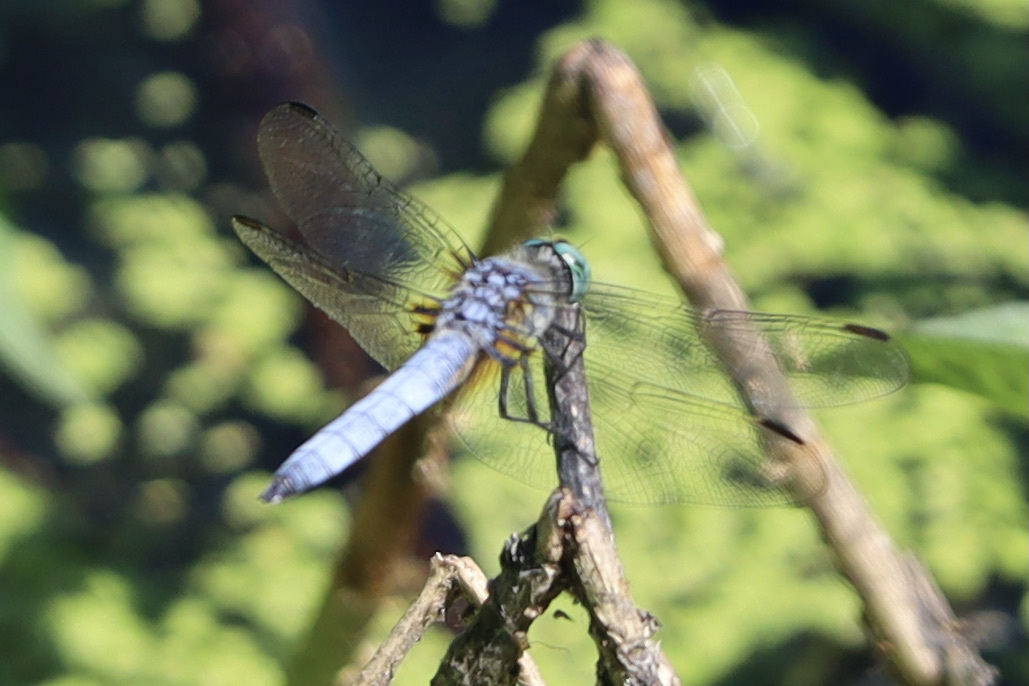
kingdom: Animalia
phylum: Arthropoda
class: Insecta
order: Odonata
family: Libellulidae
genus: Pachydiplax
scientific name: Pachydiplax longipennis
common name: Blue dasher
